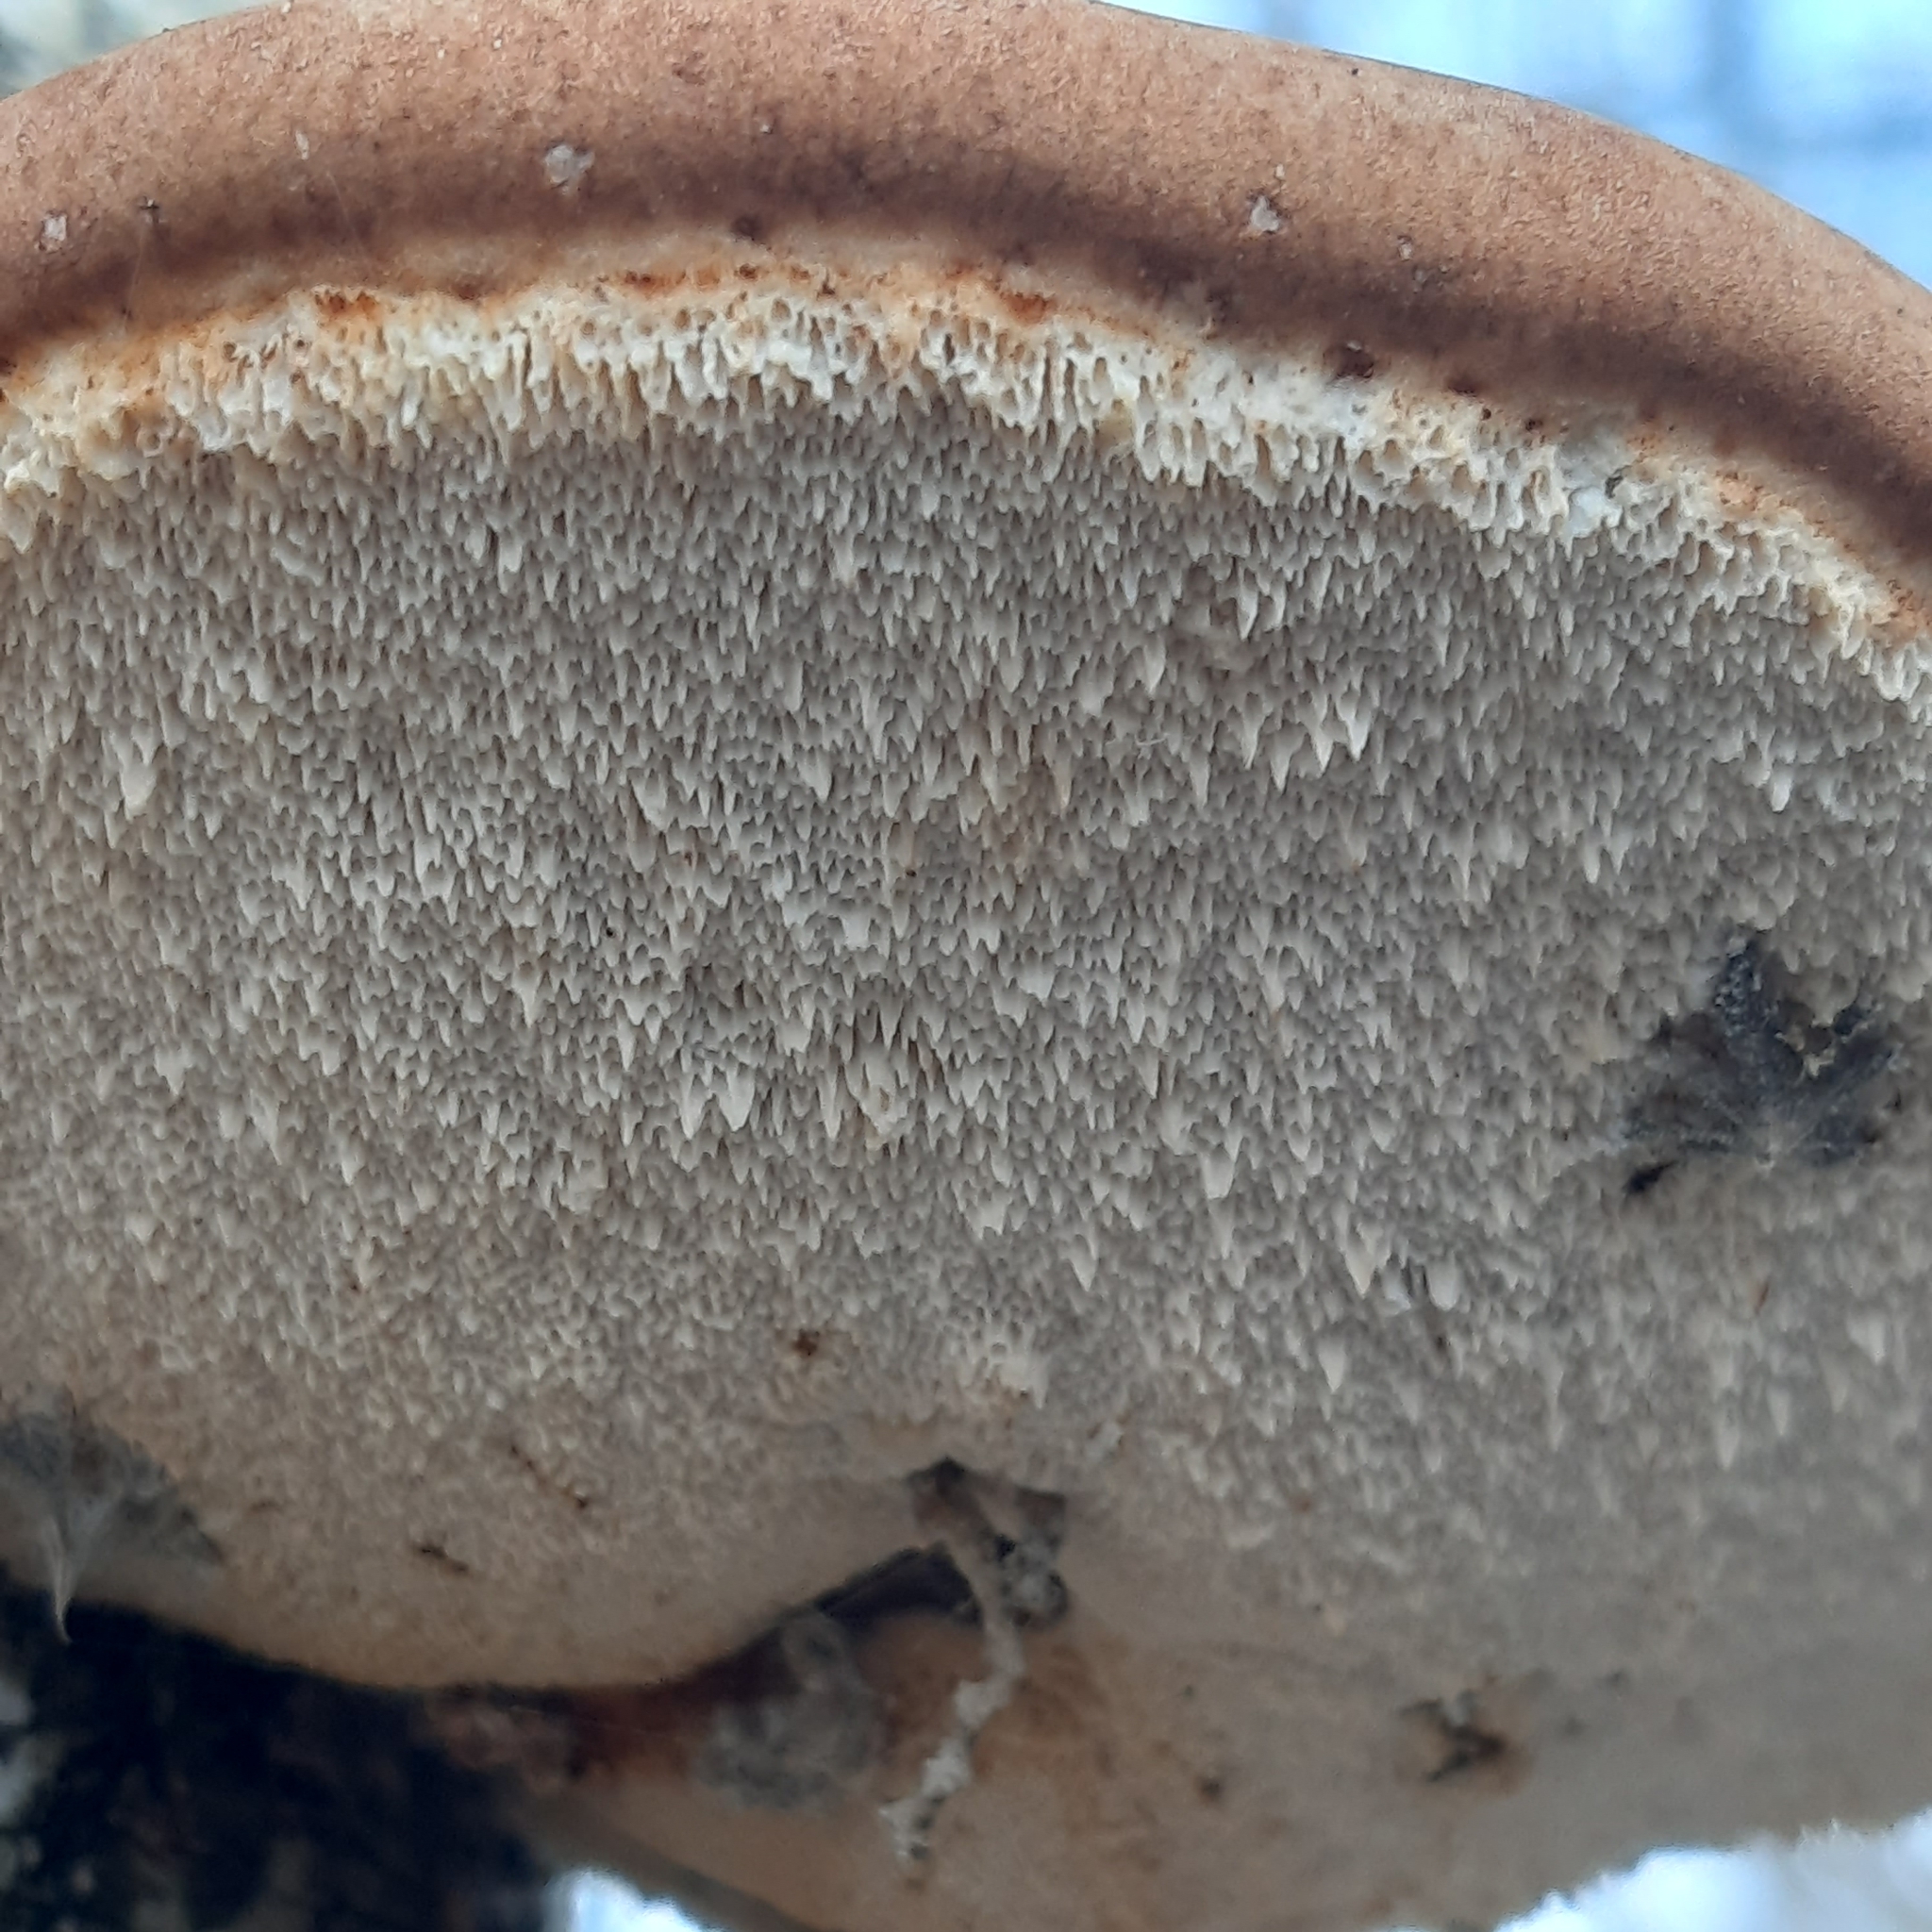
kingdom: Fungi
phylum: Basidiomycota
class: Agaricomycetes
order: Polyporales
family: Fomitopsidaceae
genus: Fomitopsis
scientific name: Fomitopsis betulina
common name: Birch polypore
